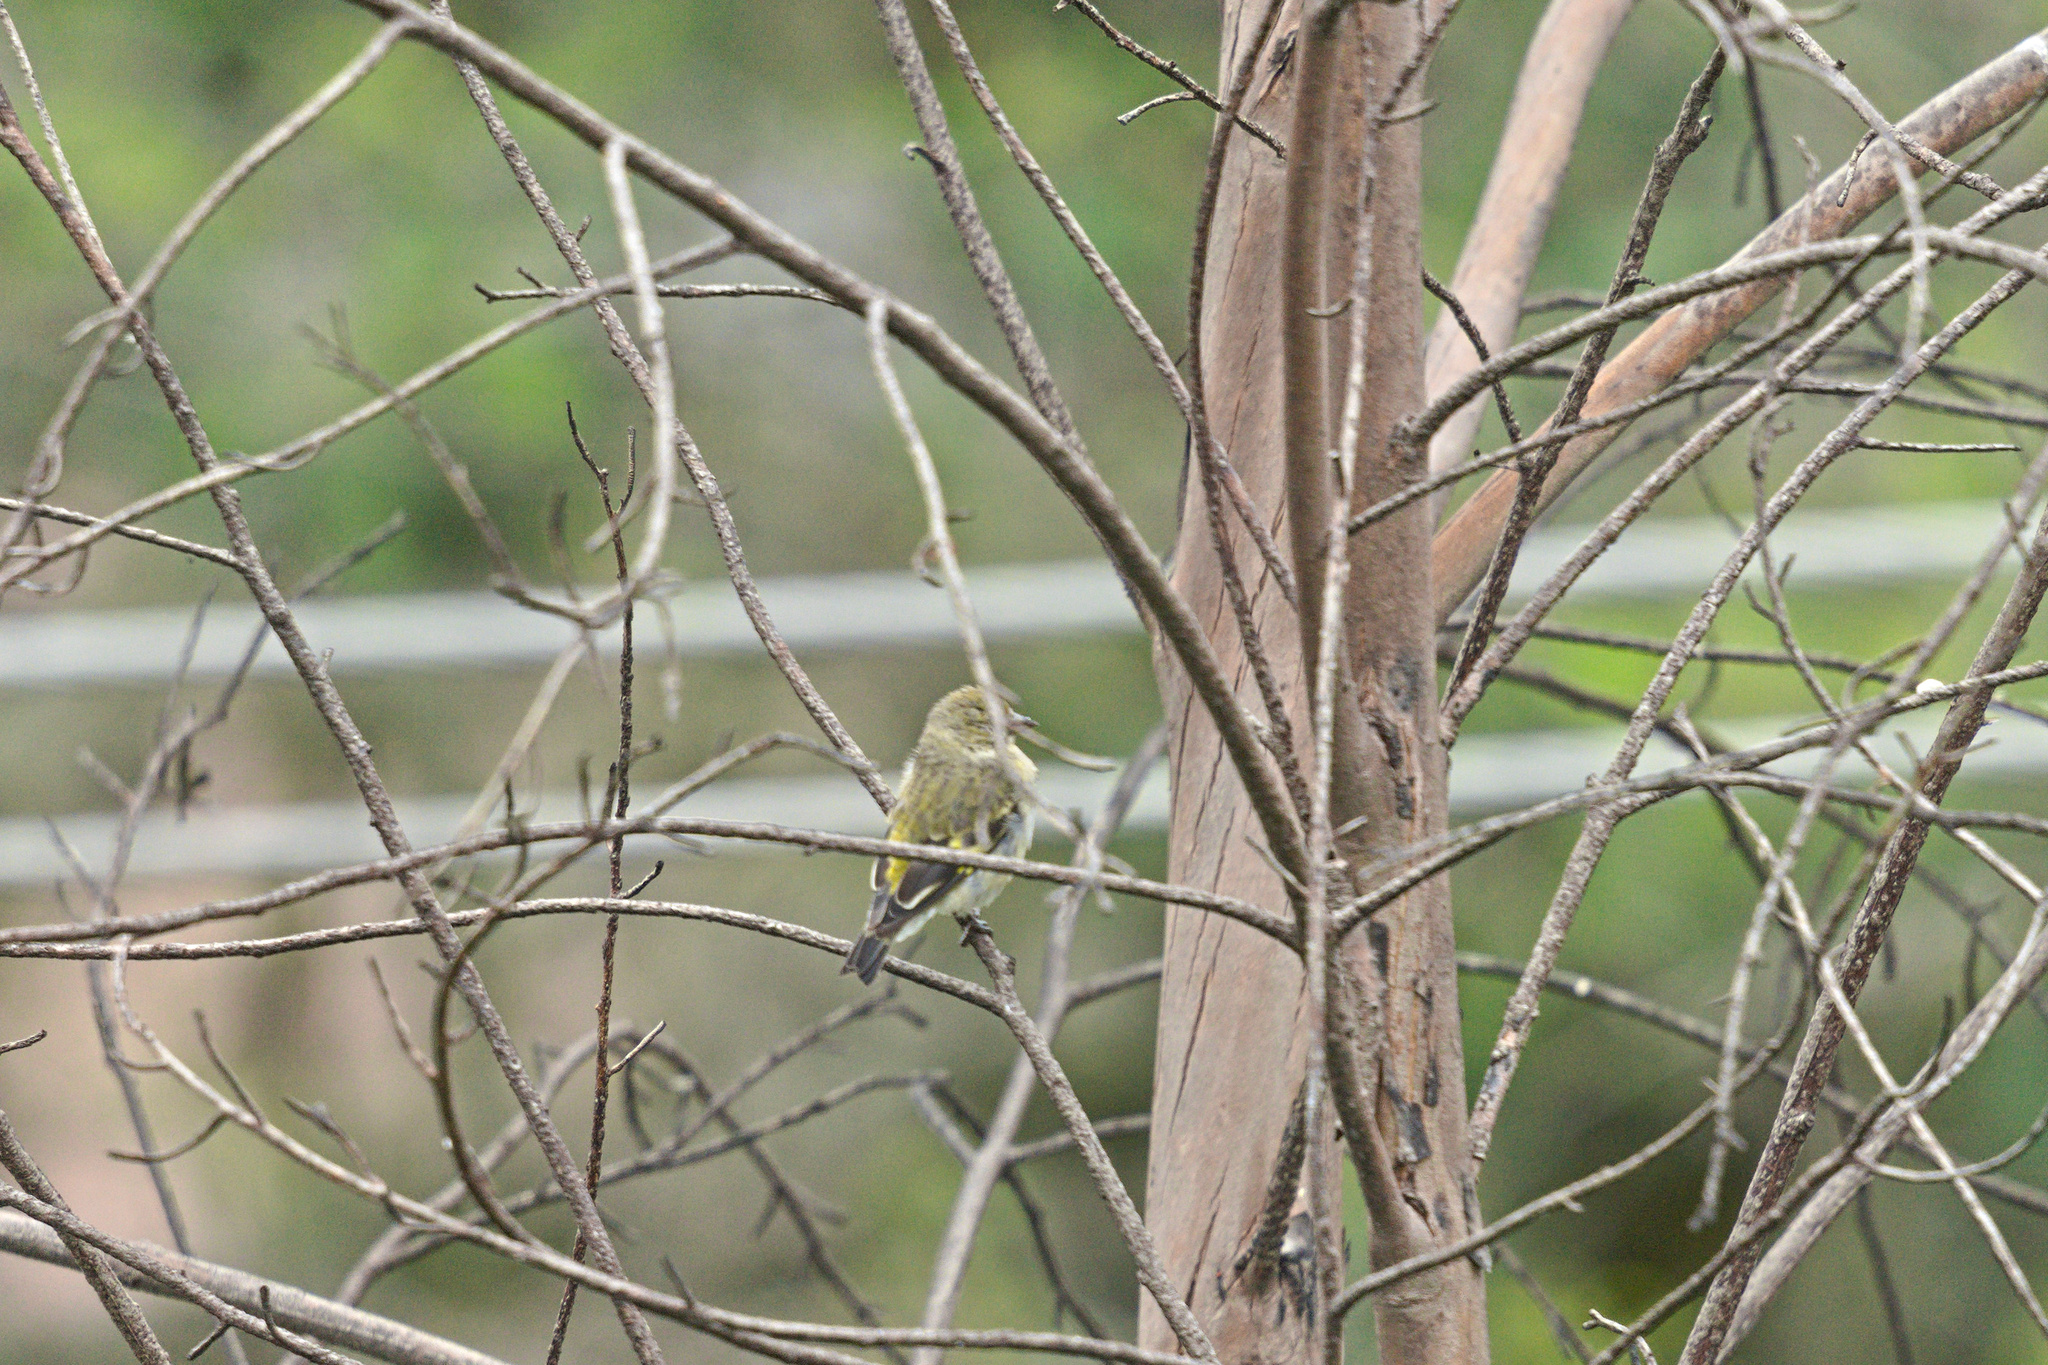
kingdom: Animalia
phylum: Chordata
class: Aves
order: Passeriformes
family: Fringillidae
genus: Spinus
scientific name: Spinus magellanicus
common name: Hooded siskin
